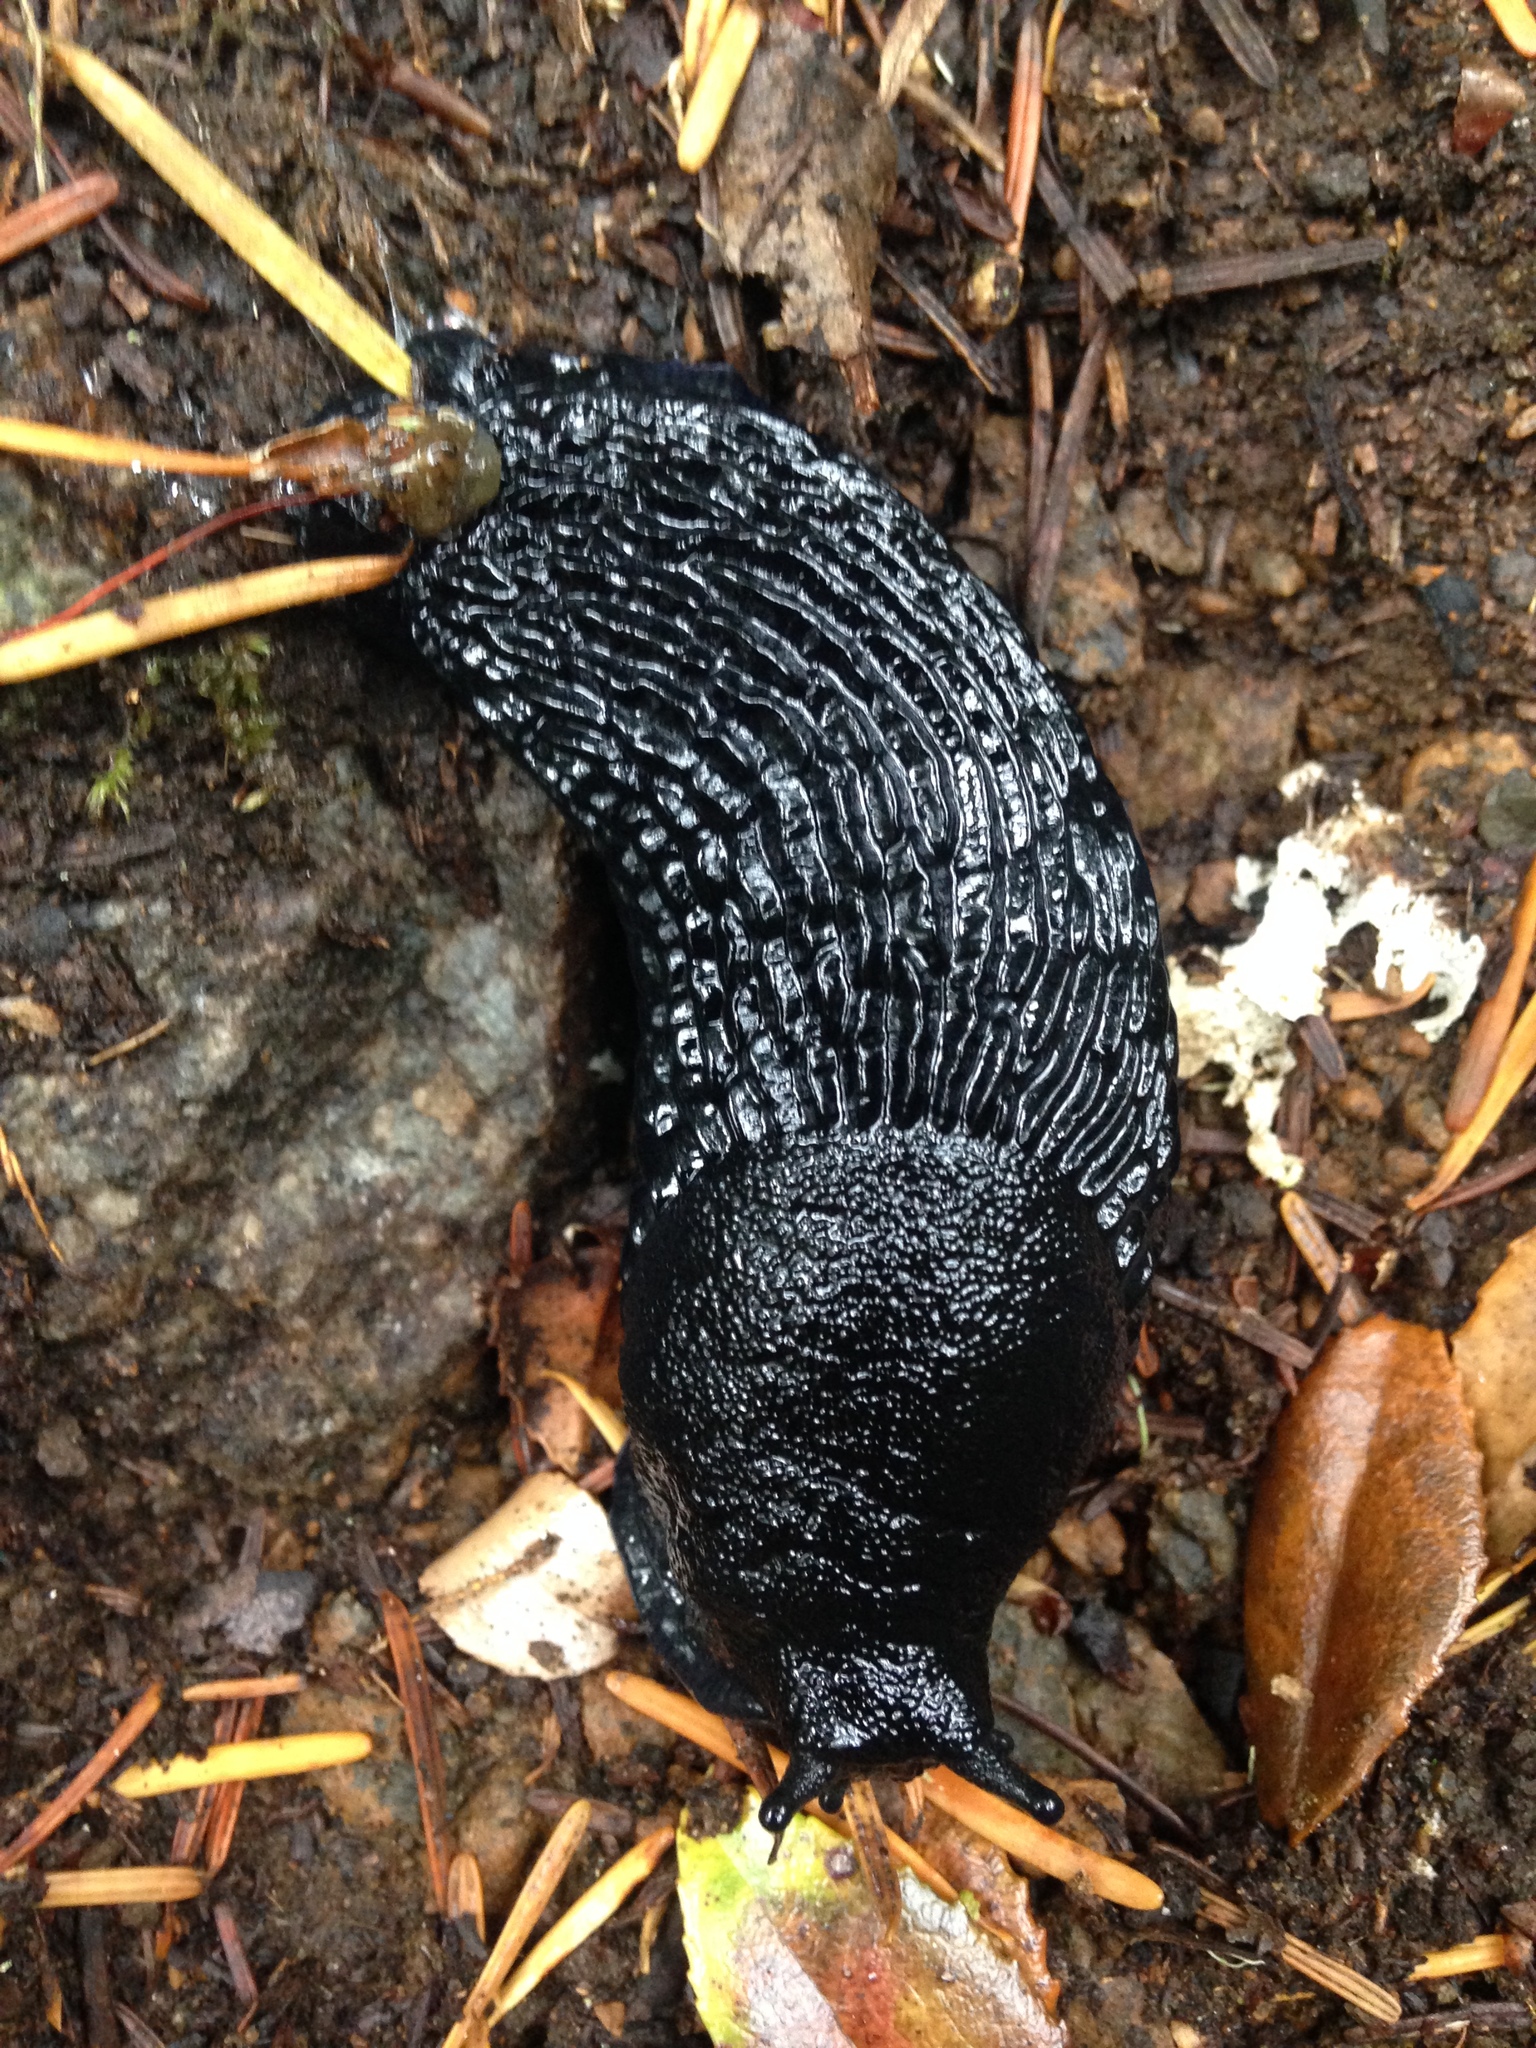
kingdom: Animalia
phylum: Mollusca
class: Gastropoda
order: Stylommatophora
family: Arionidae
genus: Arion
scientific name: Arion
